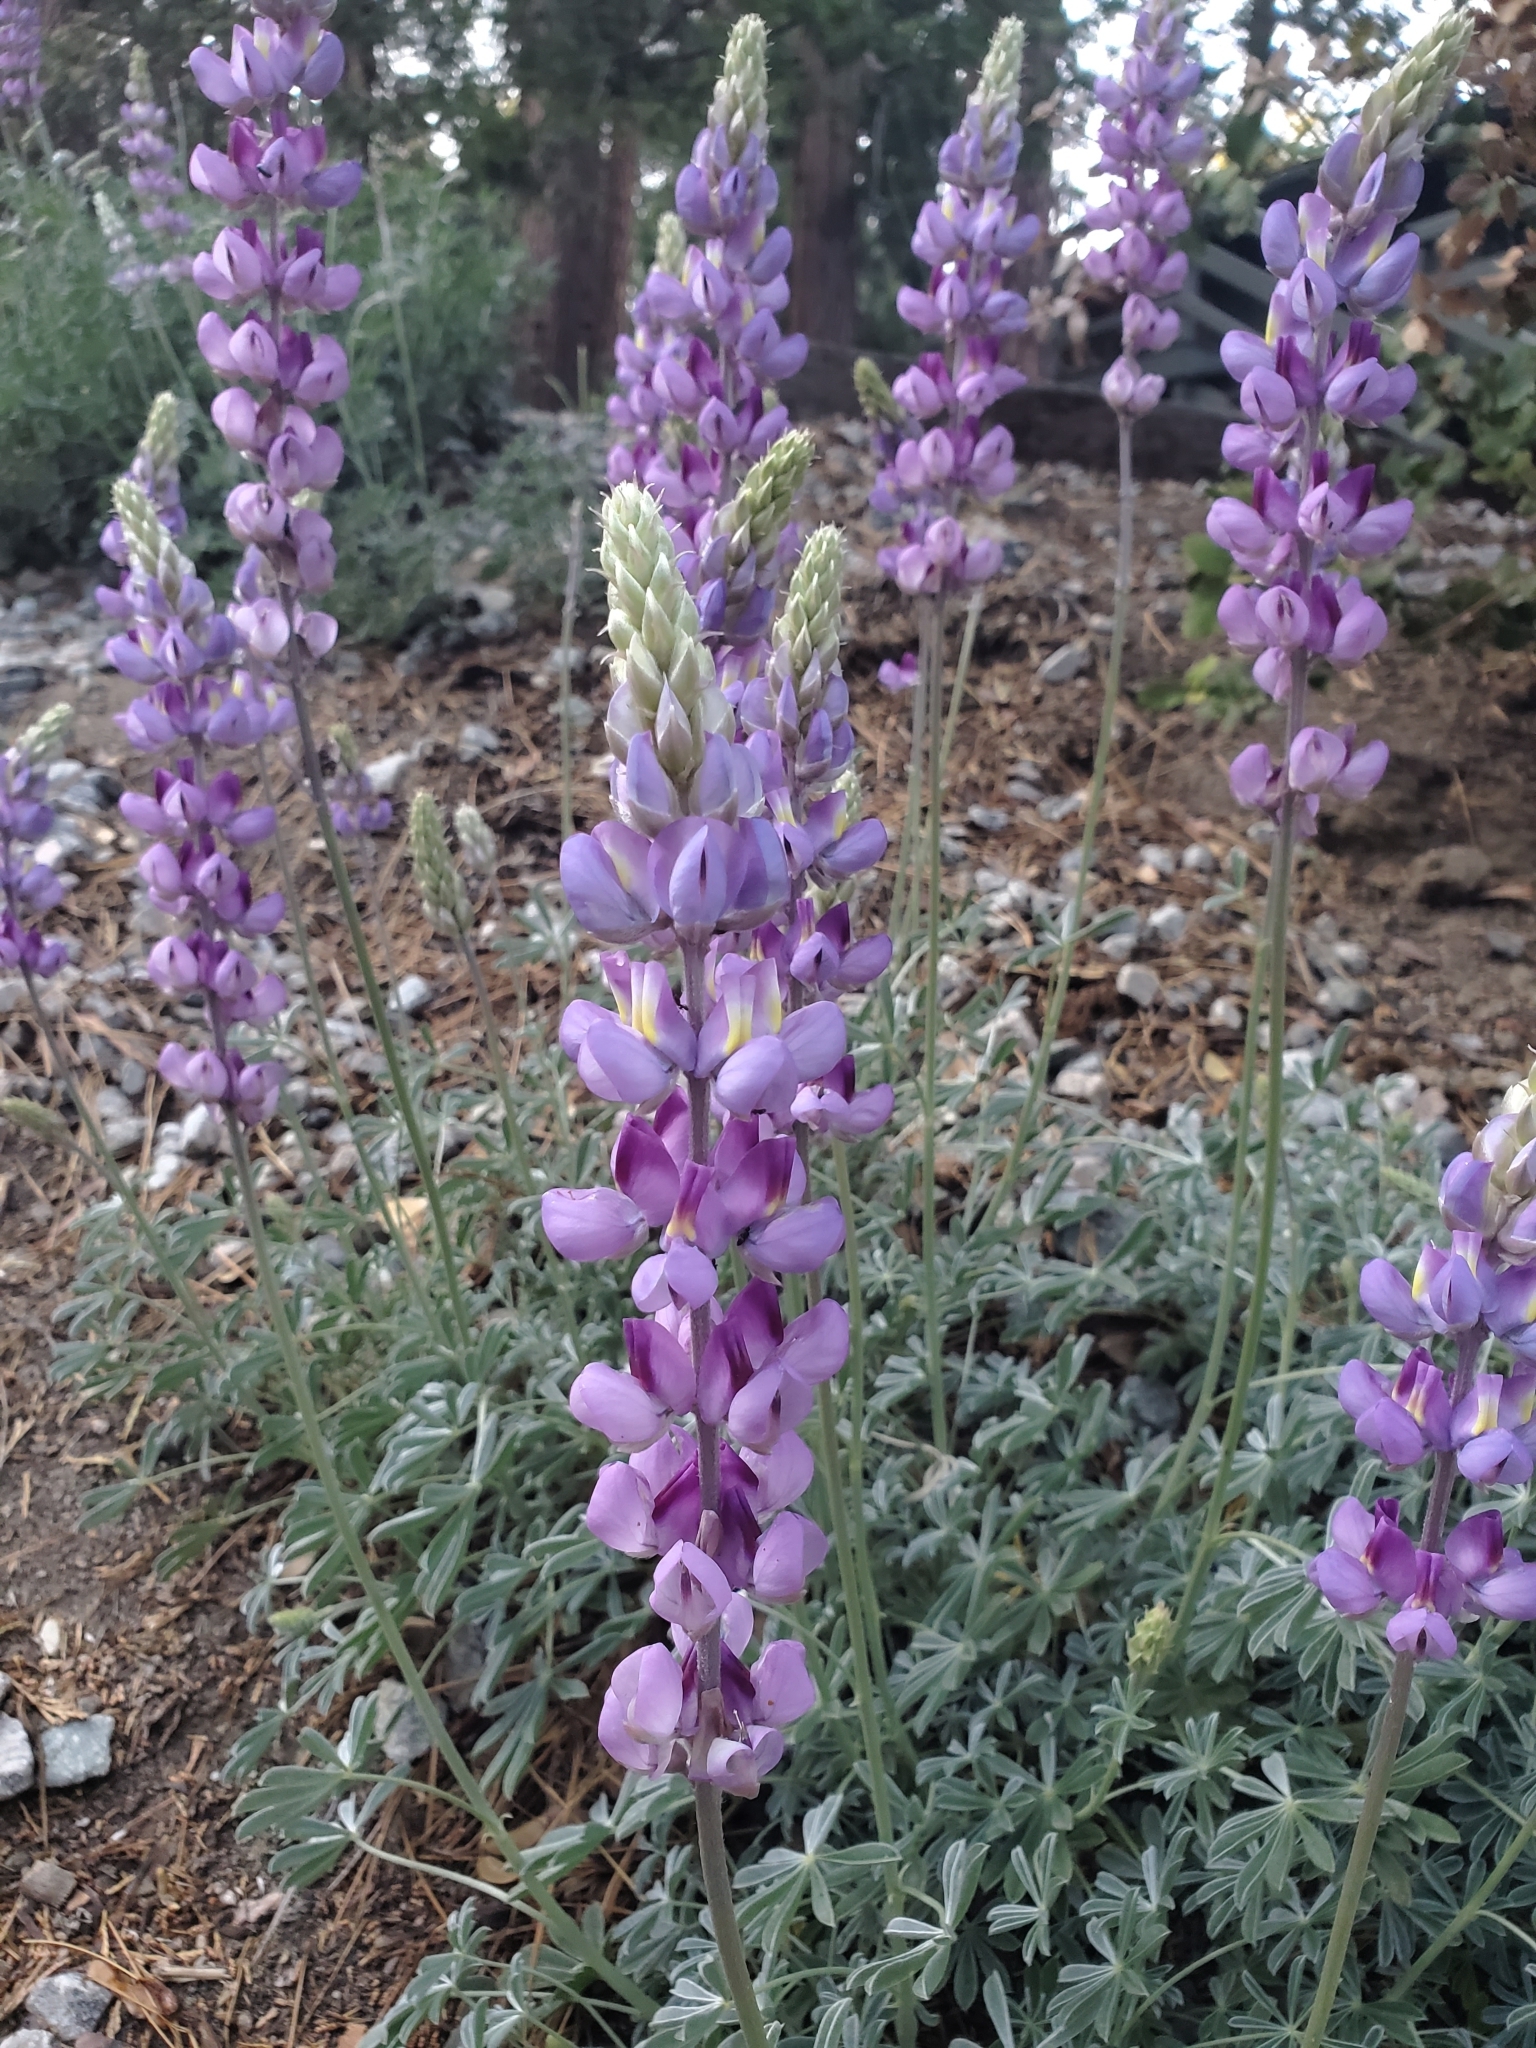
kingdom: Plantae
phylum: Tracheophyta
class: Magnoliopsida
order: Fabales
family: Fabaceae
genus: Lupinus
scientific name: Lupinus excubitus
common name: Grape soda lupine
